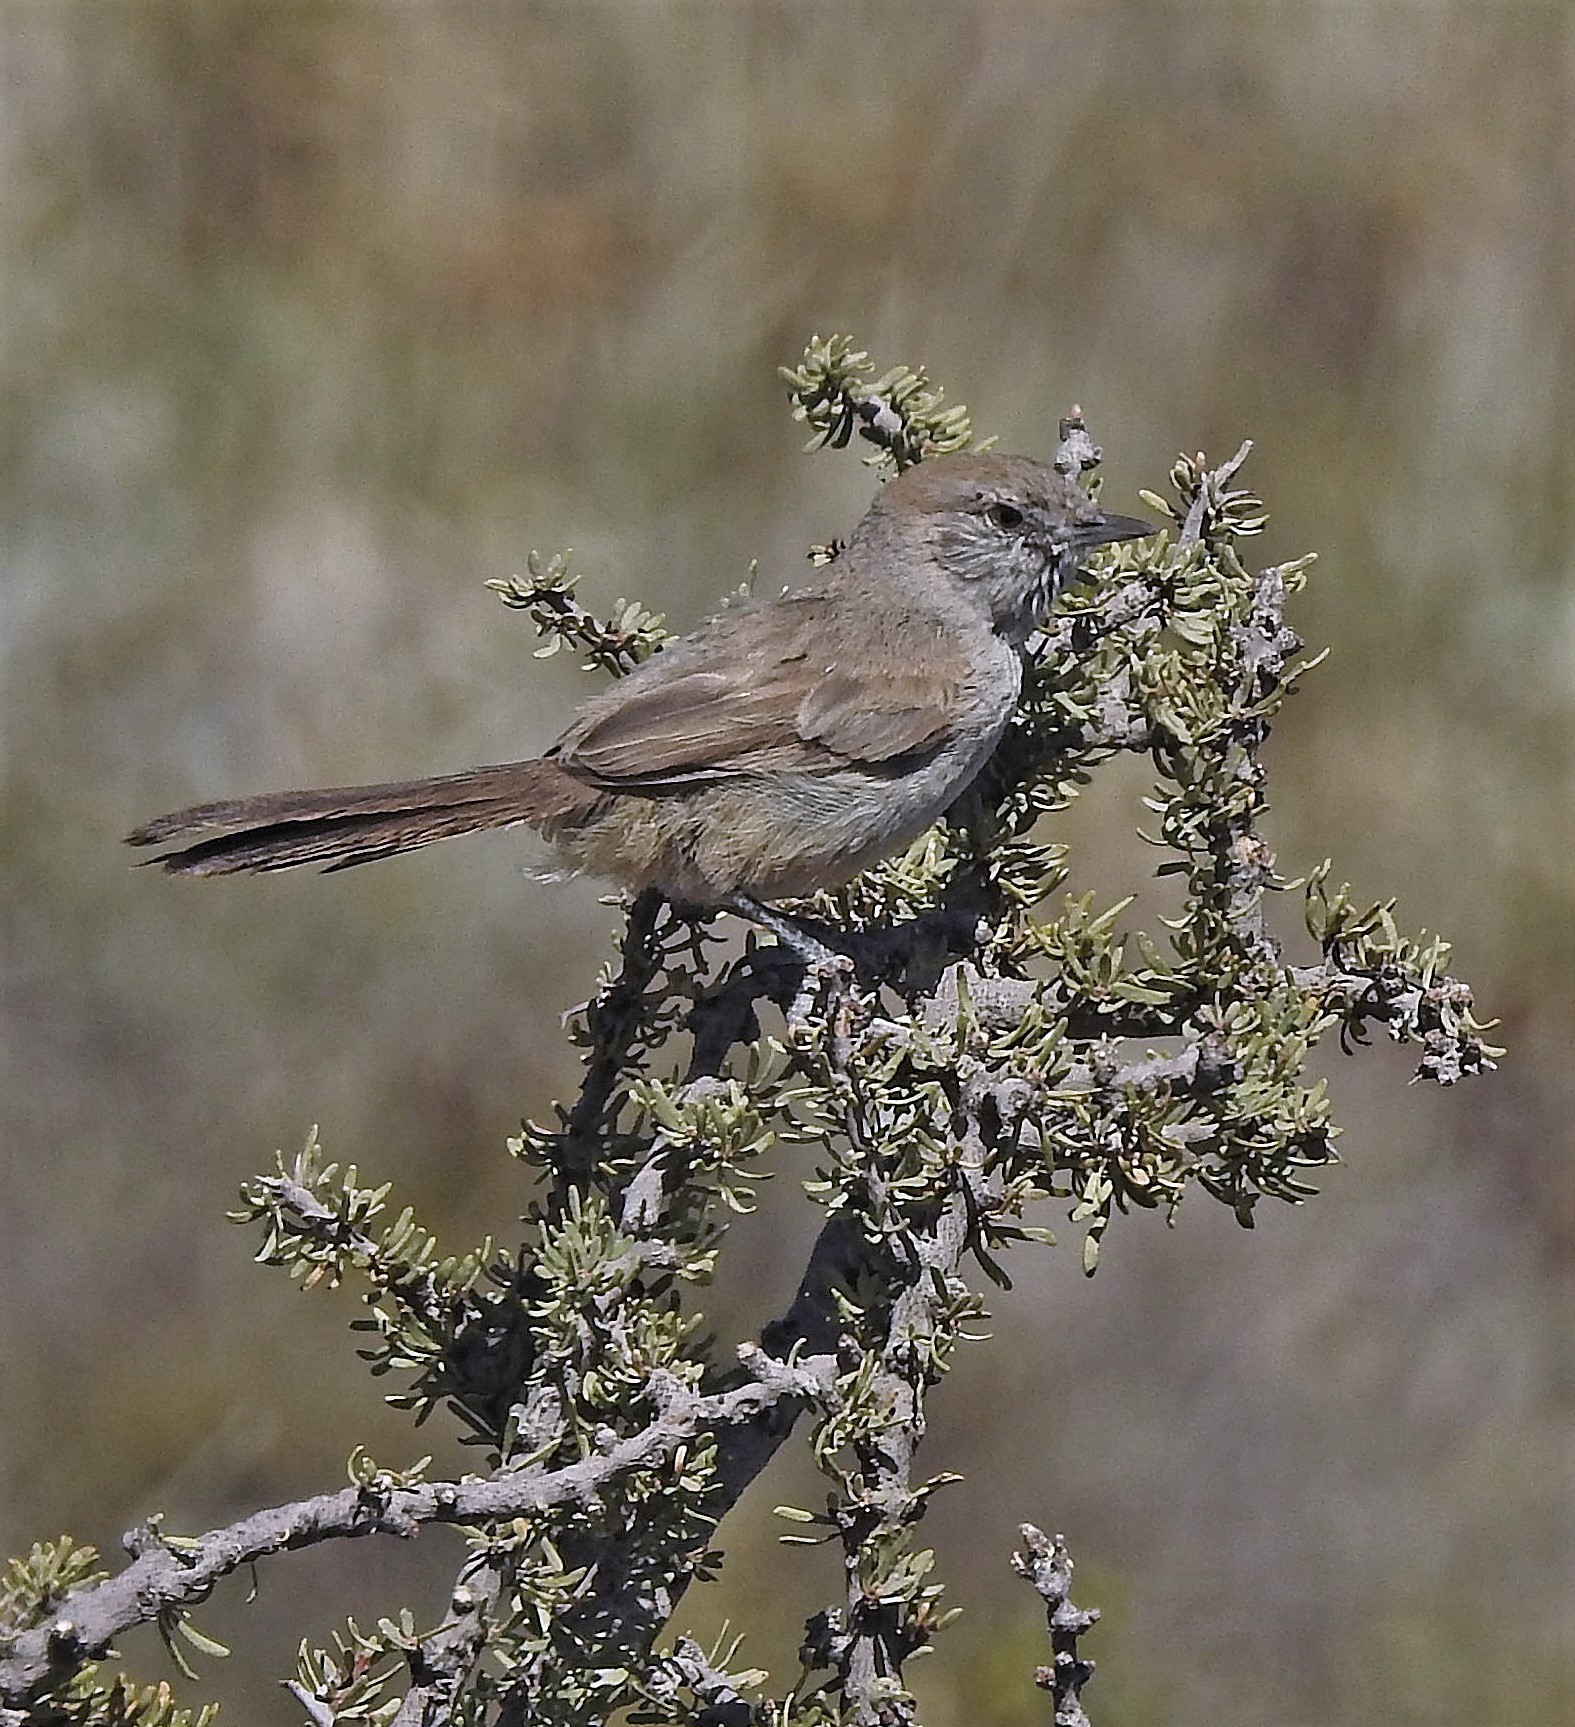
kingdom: Animalia
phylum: Chordata
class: Aves
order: Passeriformes
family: Furnariidae
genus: Asthenes
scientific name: Asthenes patagonica
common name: Patagonian canastero
